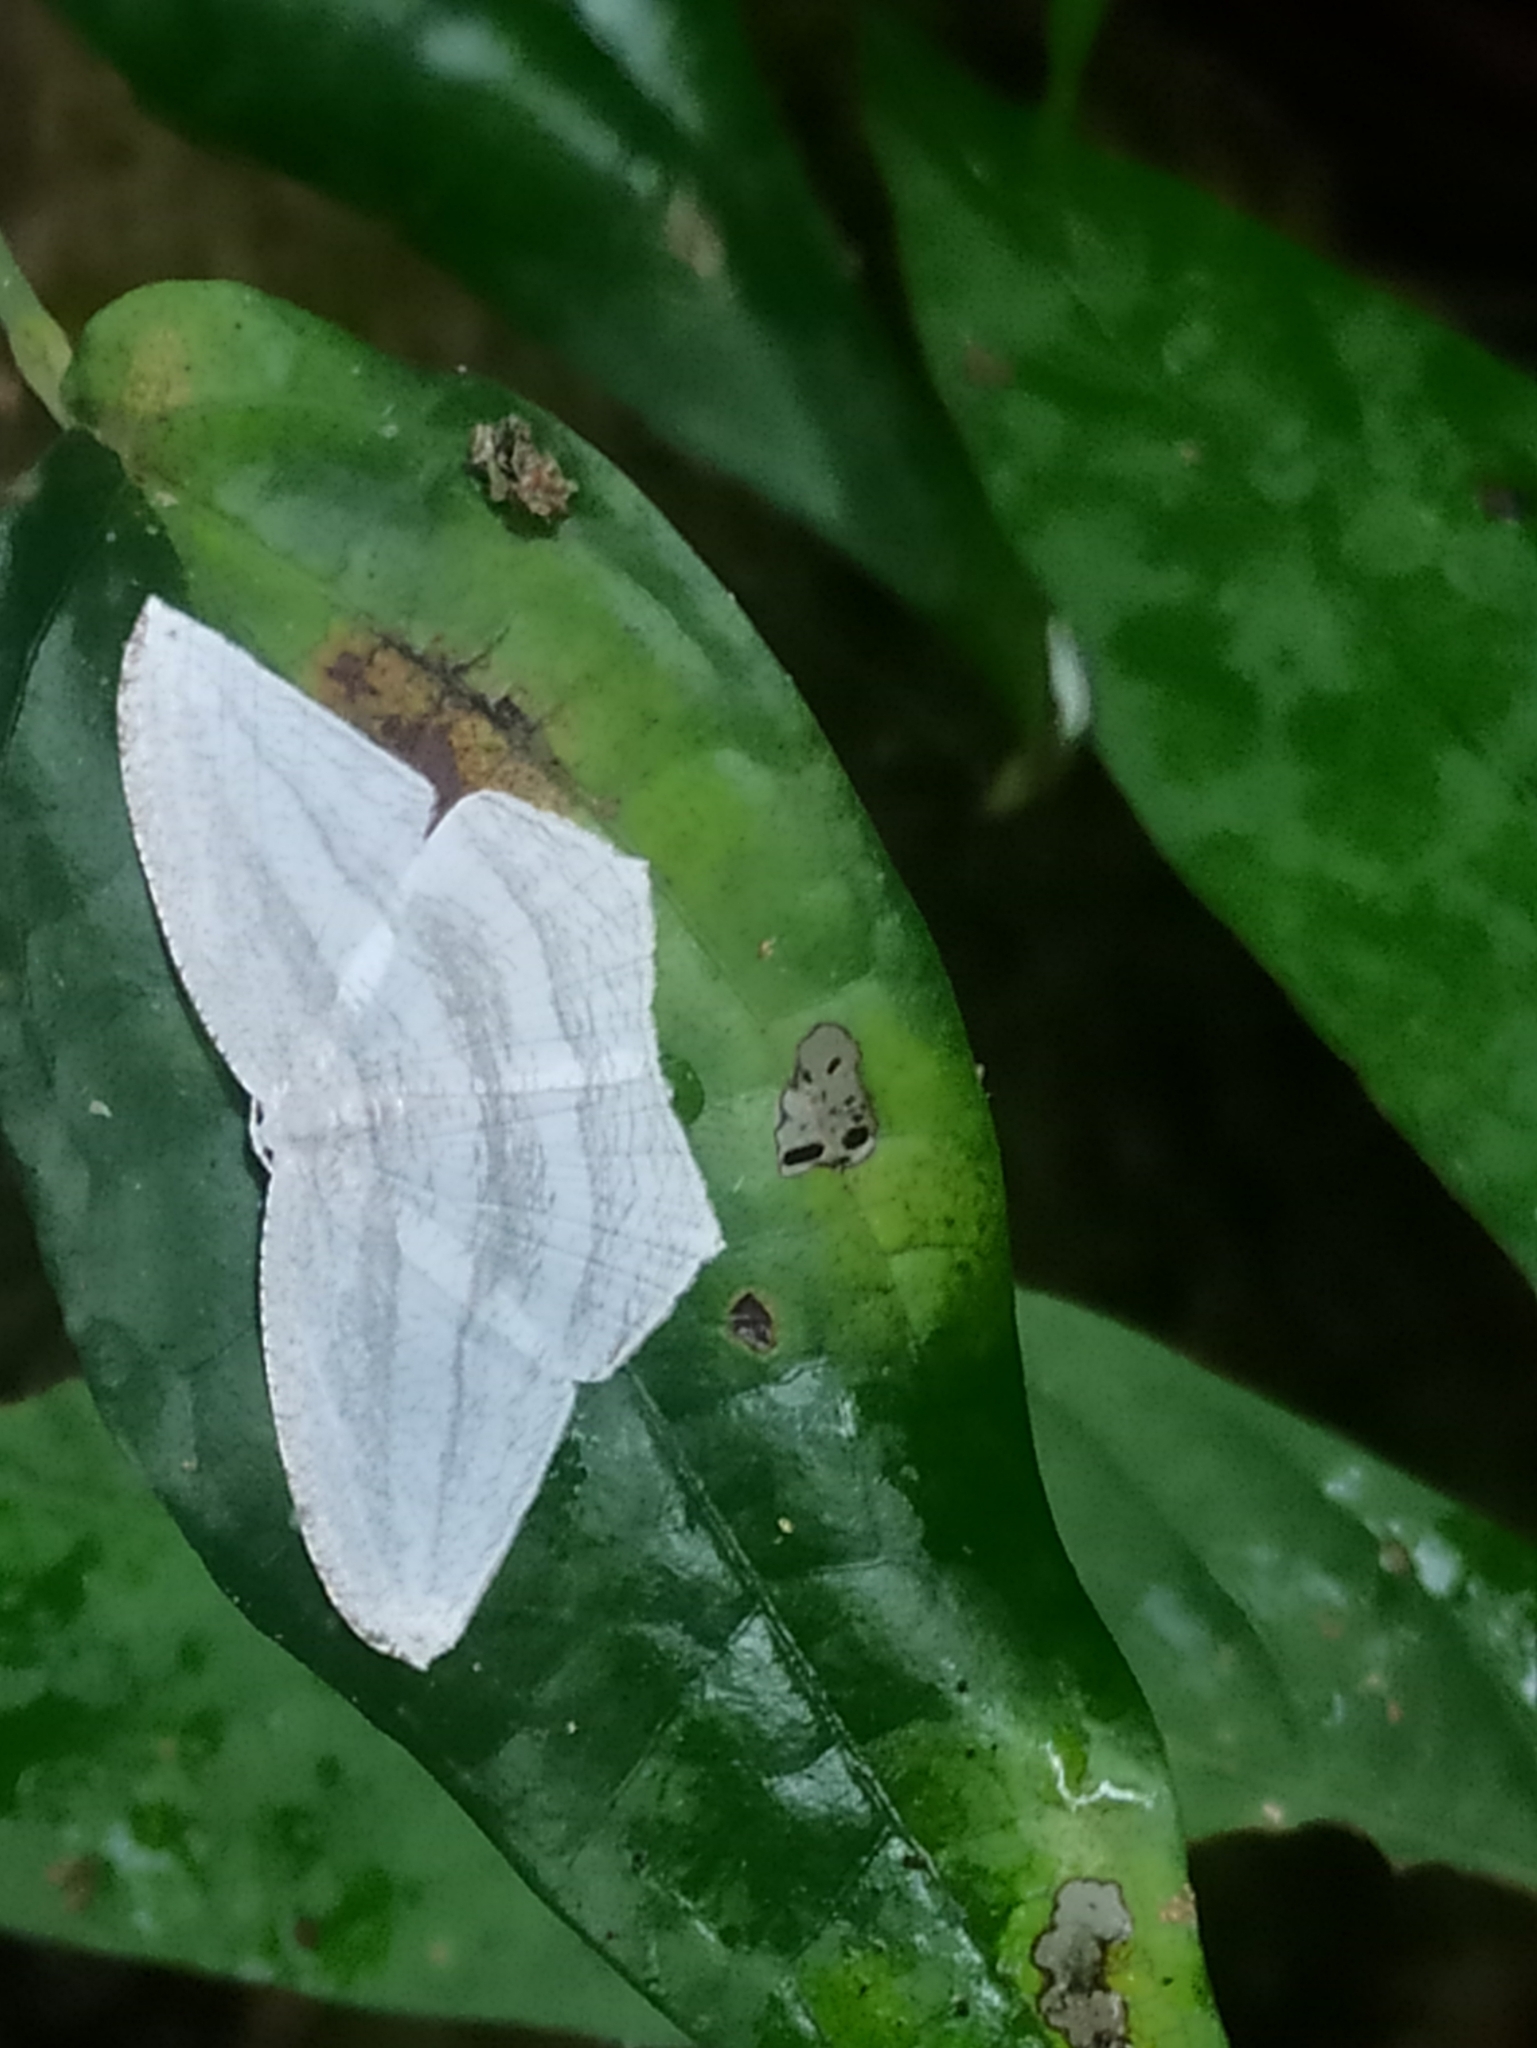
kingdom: Animalia
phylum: Arthropoda
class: Insecta
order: Lepidoptera
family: Uraniidae
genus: Acropteris
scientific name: Acropteris striataria
